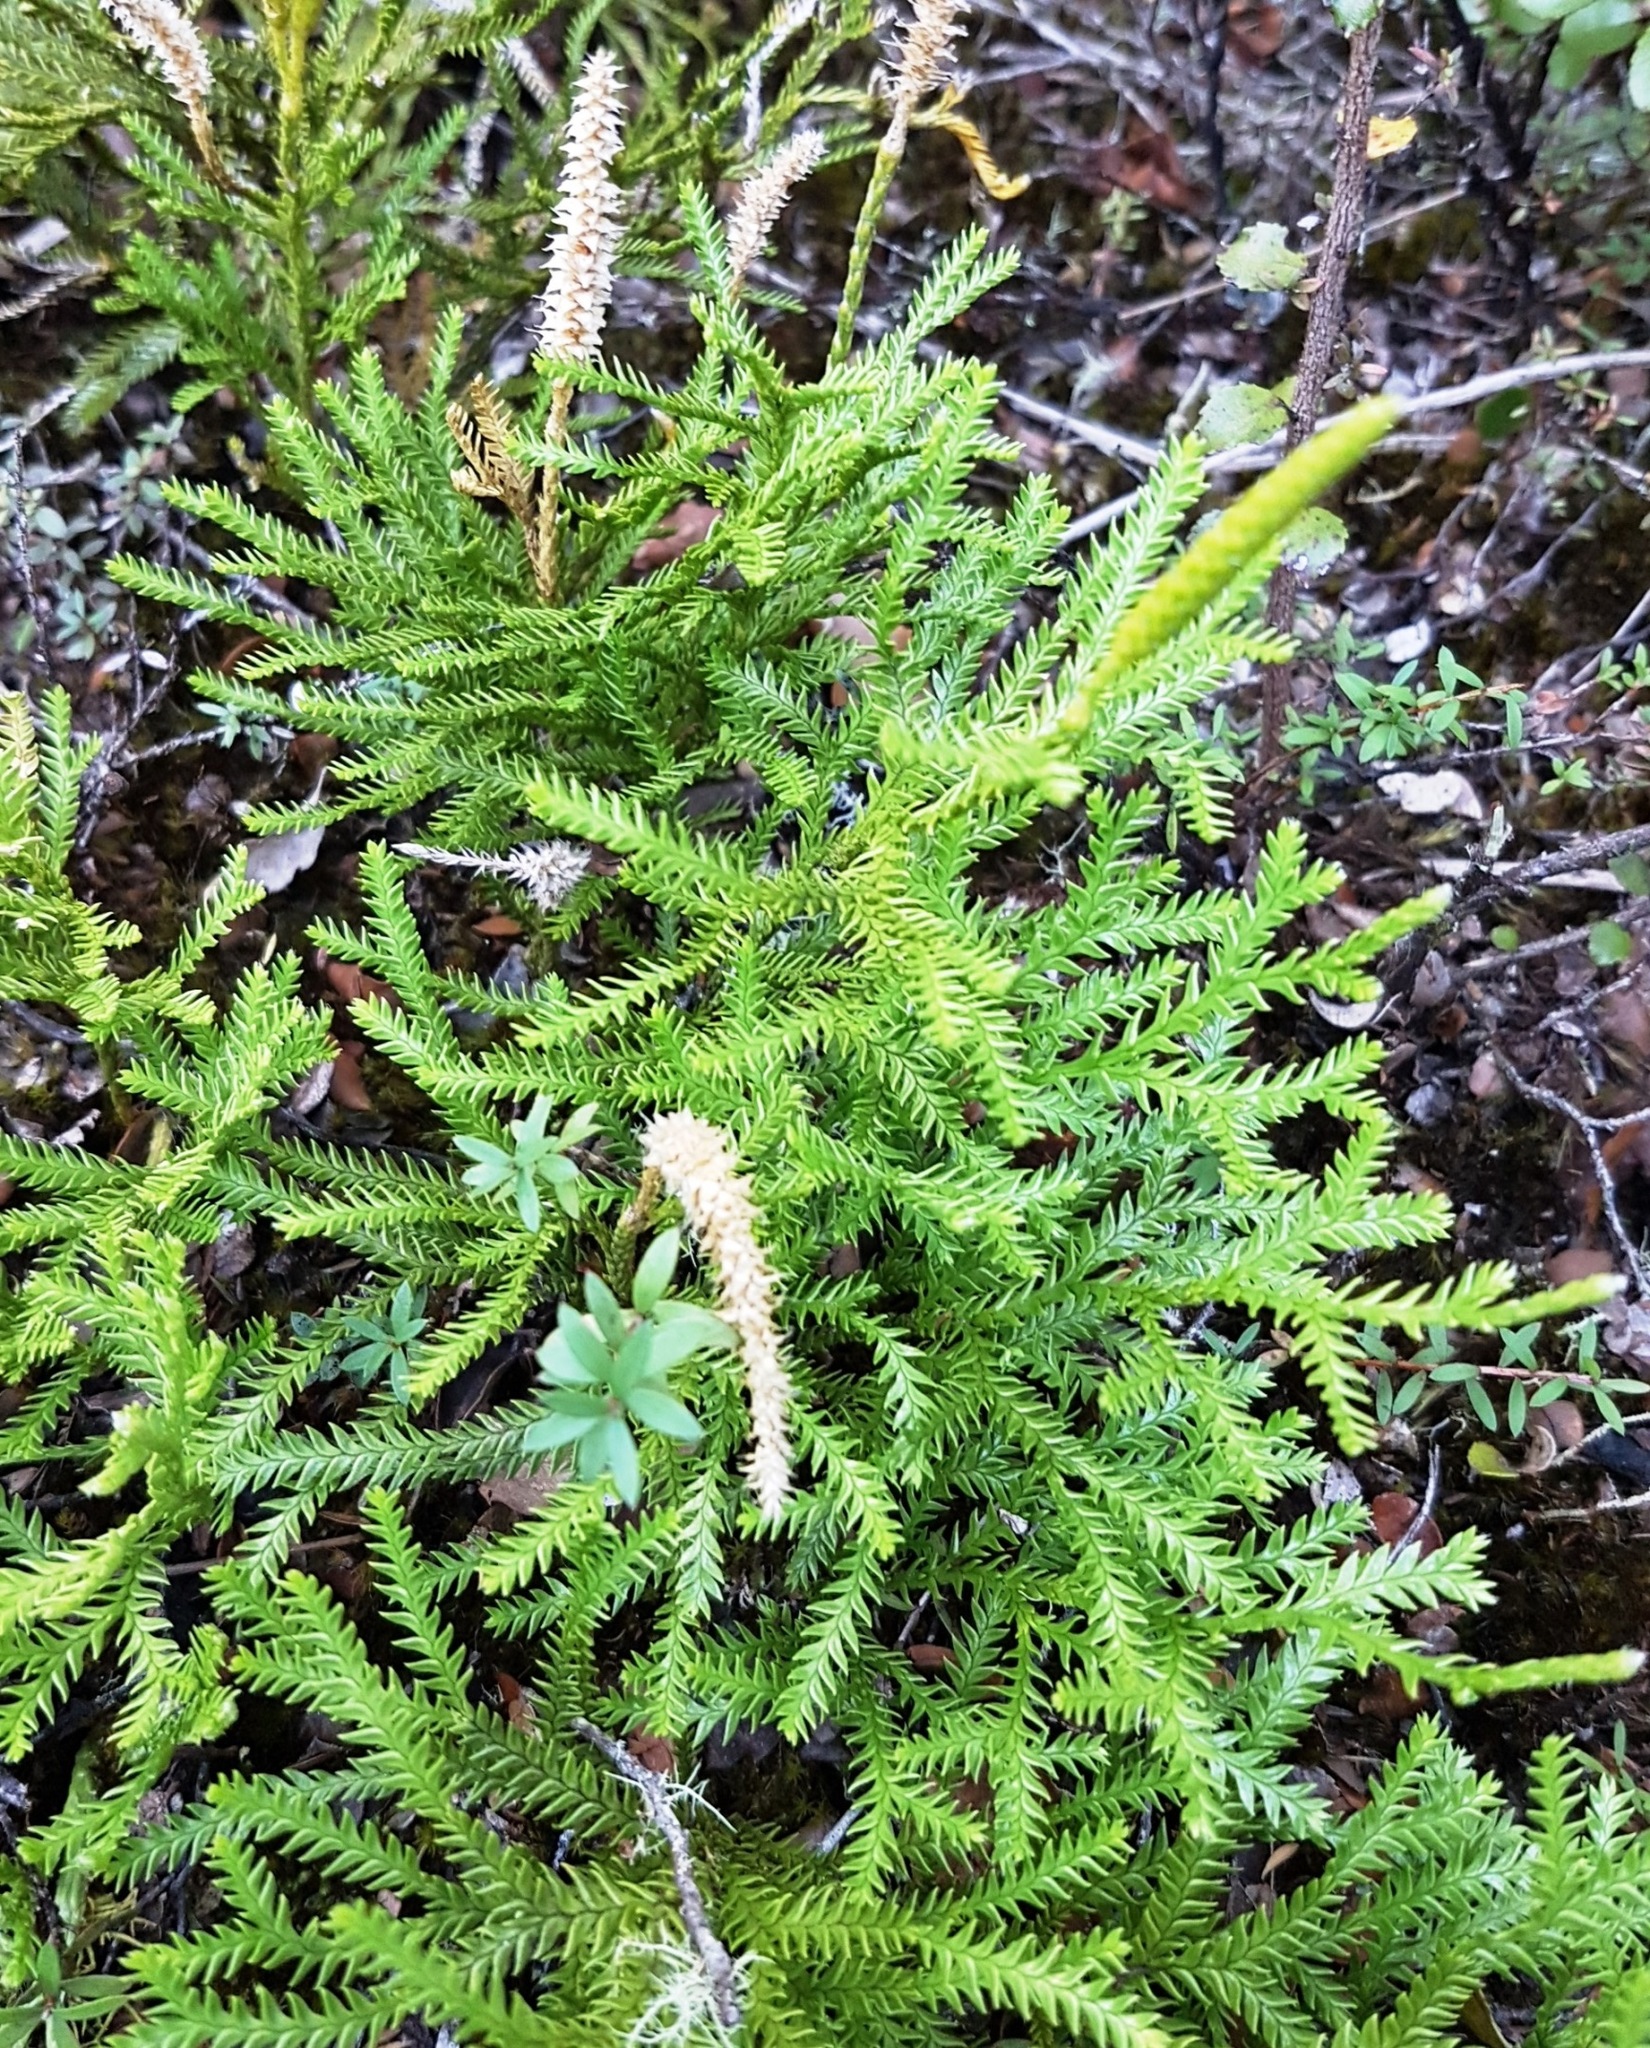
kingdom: Plantae
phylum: Tracheophyta
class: Lycopodiopsida
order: Lycopodiales
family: Lycopodiaceae
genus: Diphasium
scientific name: Diphasium scariosum
